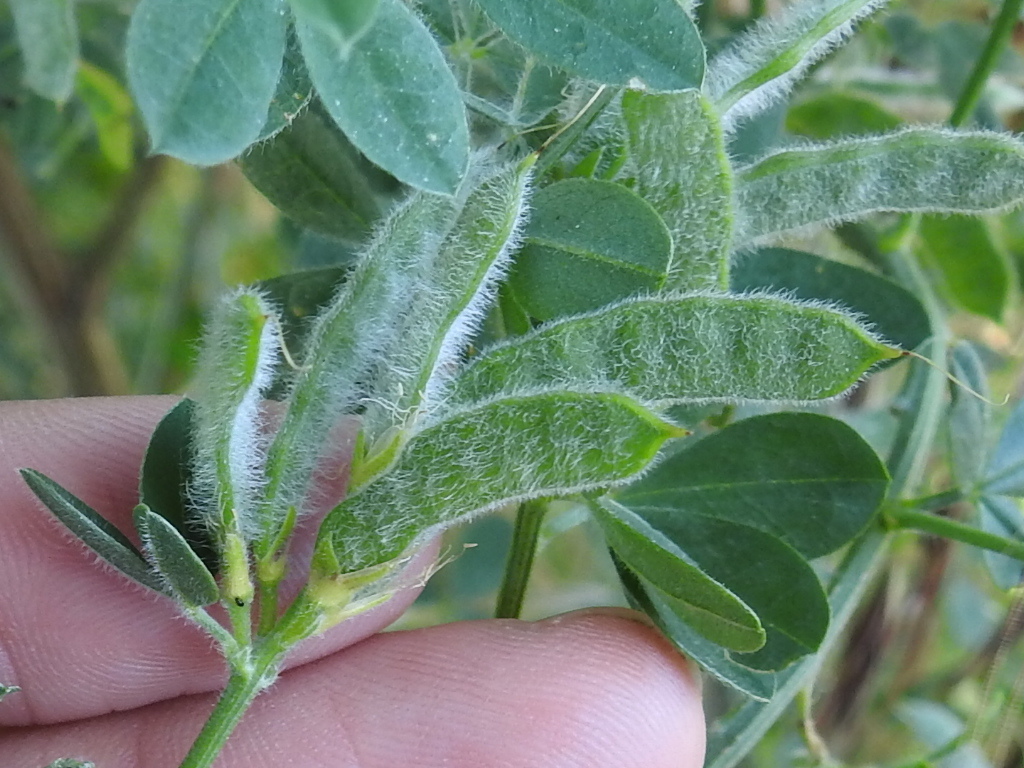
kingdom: Plantae
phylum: Tracheophyta
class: Magnoliopsida
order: Fabales
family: Fabaceae
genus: Genista
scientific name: Genista monspessulana
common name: Montpellier broom
